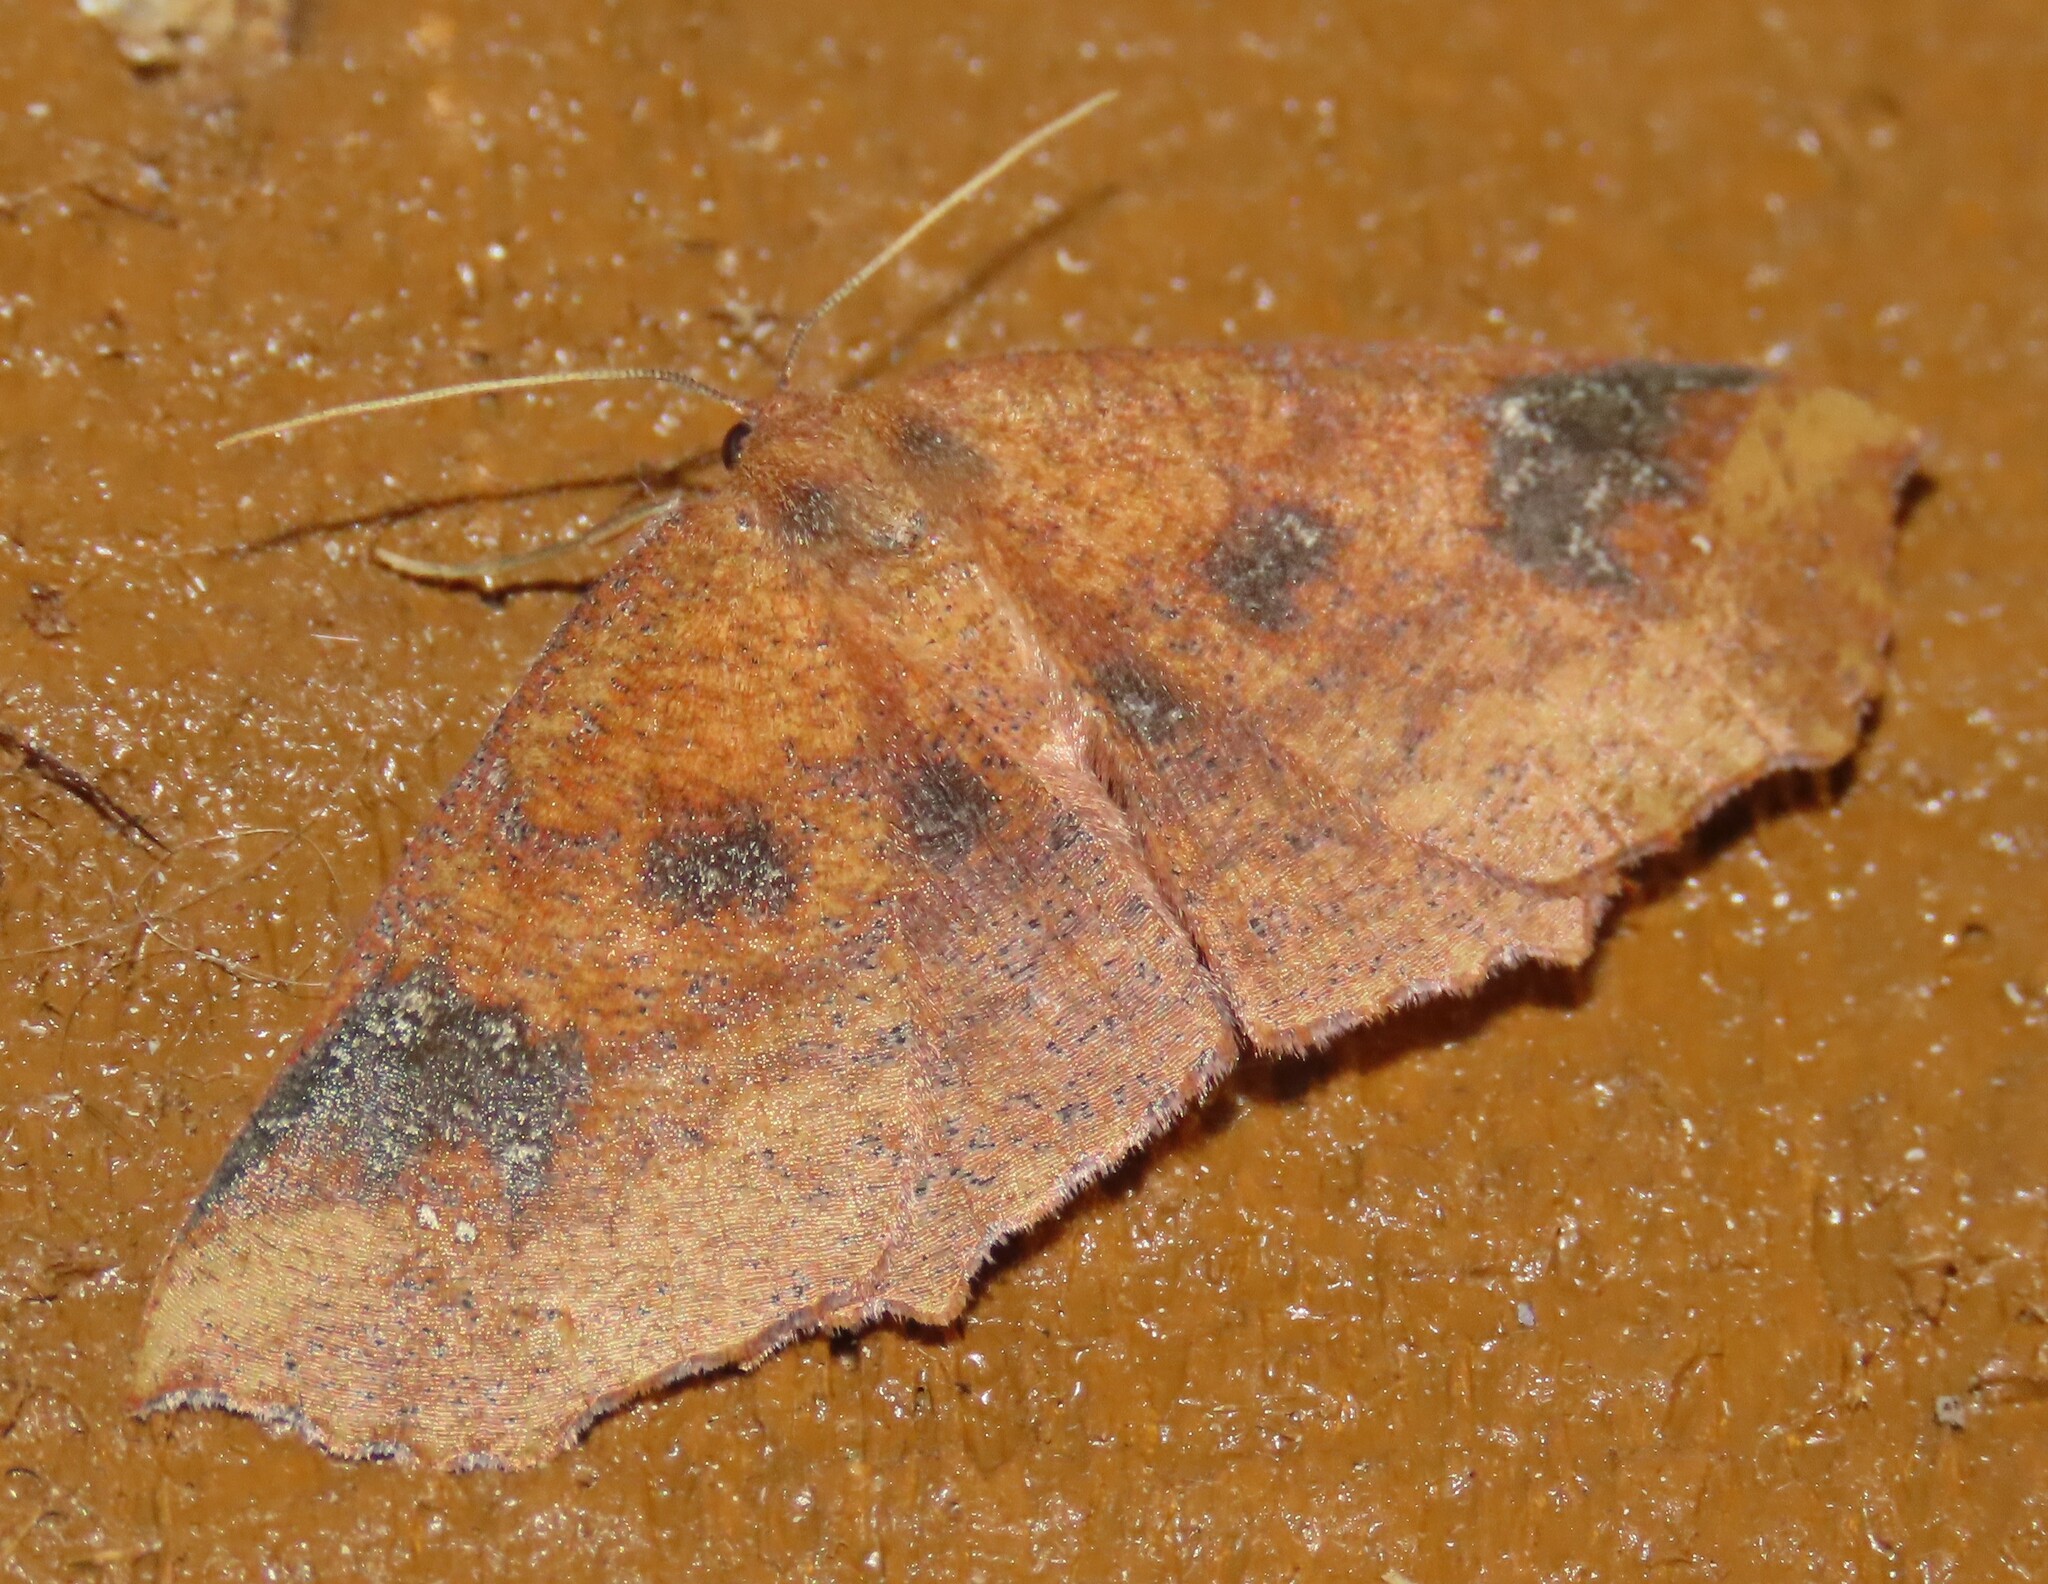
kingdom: Animalia
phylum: Arthropoda
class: Insecta
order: Lepidoptera
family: Geometridae
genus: Xyridacma
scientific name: Xyridacma ustaria
